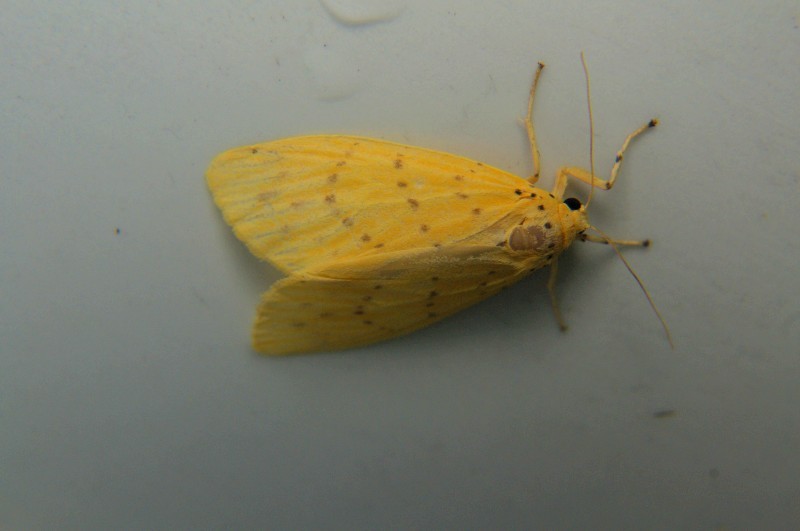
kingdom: Animalia
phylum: Arthropoda
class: Insecta
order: Lepidoptera
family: Erebidae
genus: Barsine
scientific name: Barsine defecta
